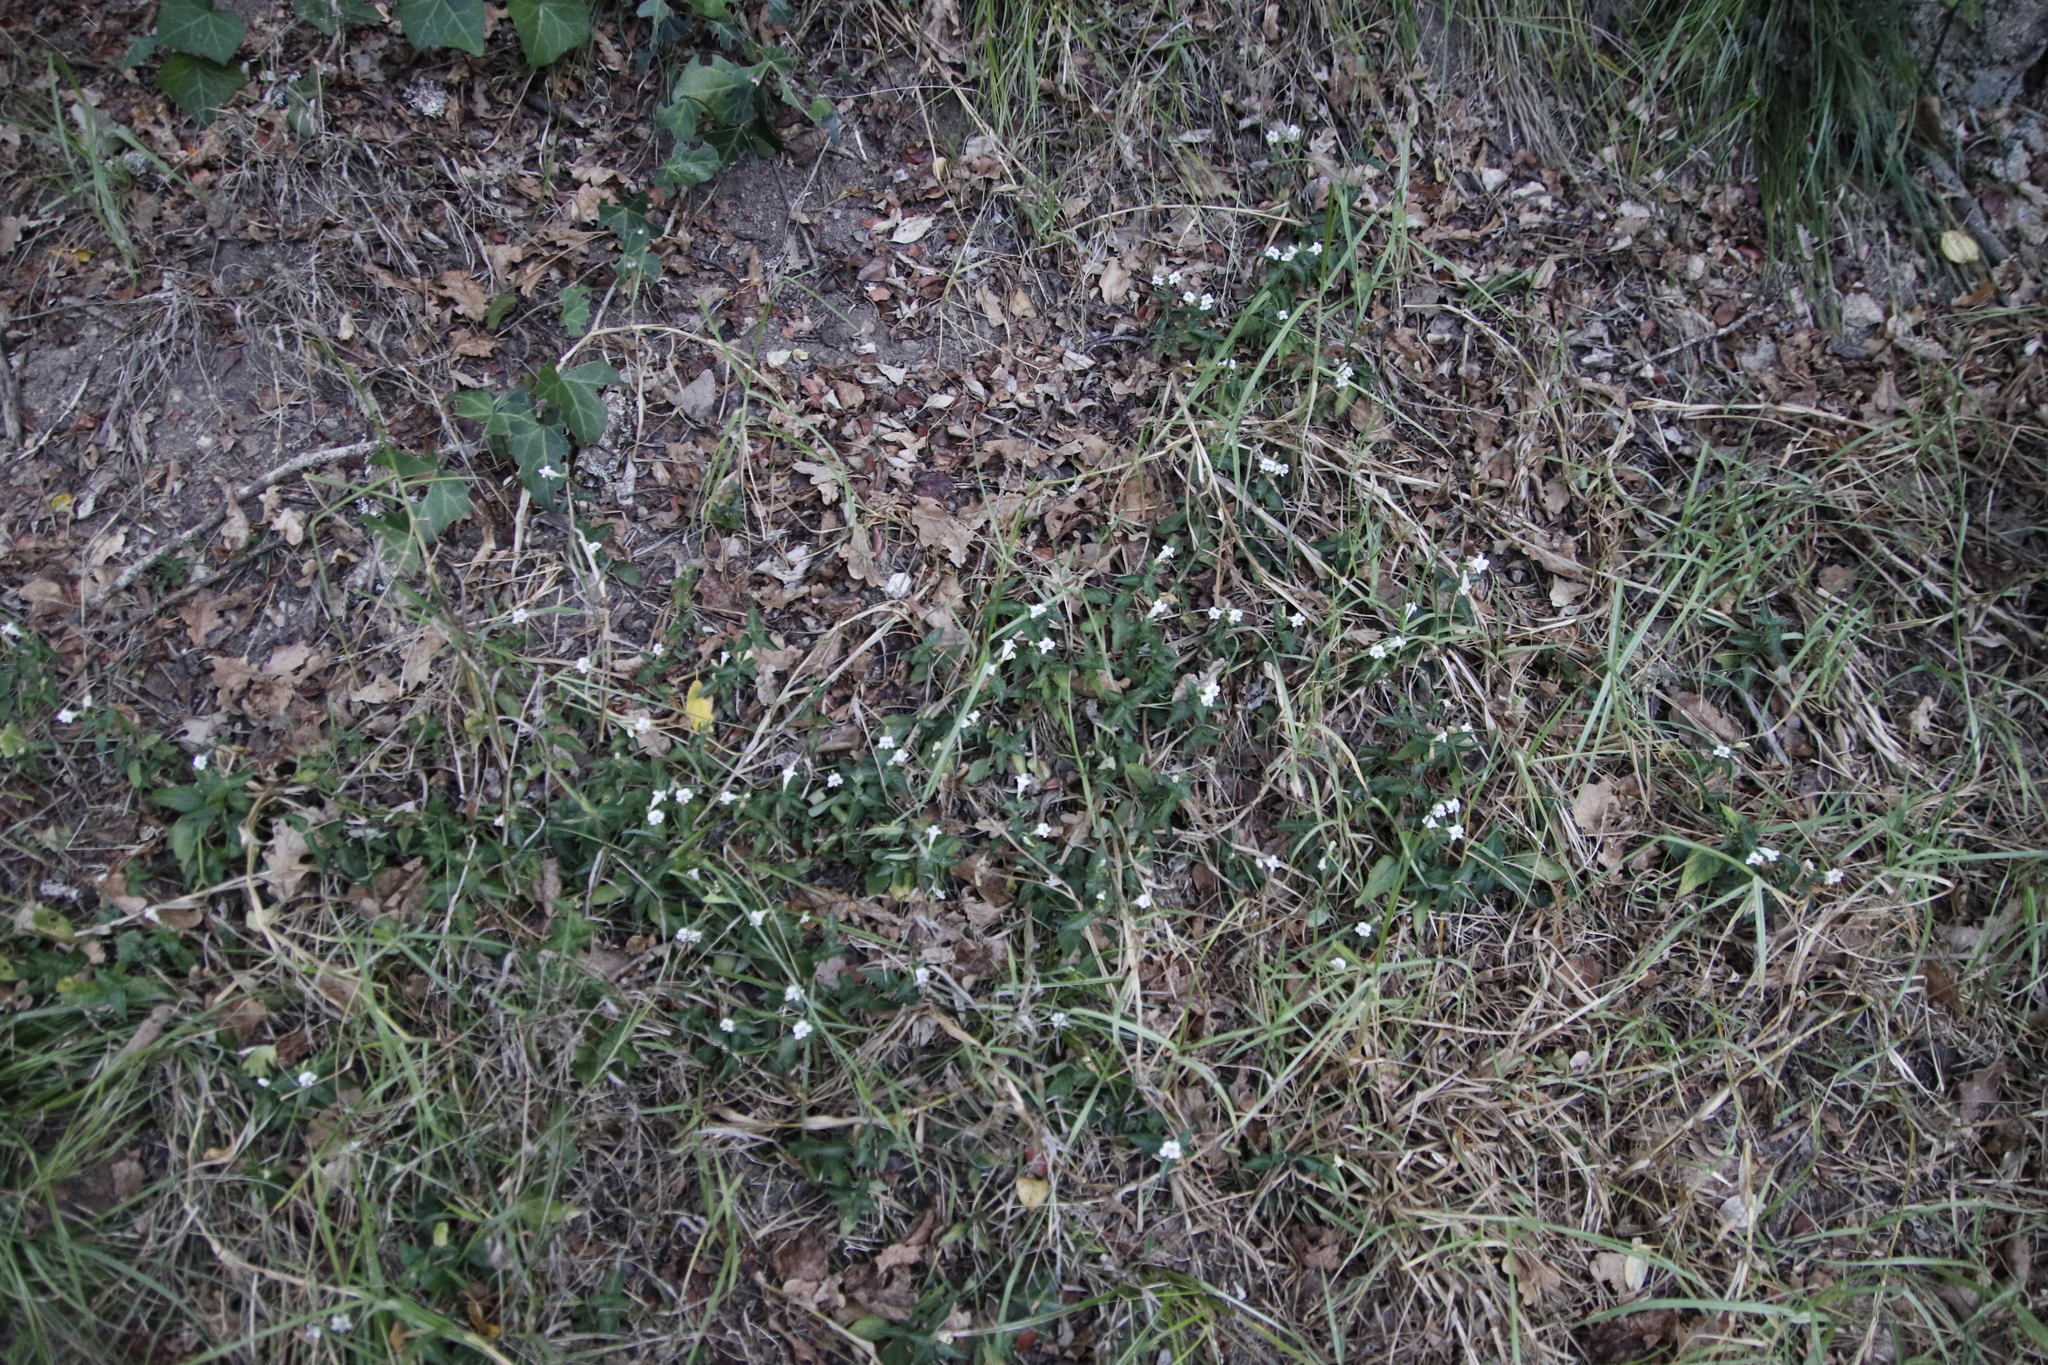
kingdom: Plantae
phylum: Tracheophyta
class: Magnoliopsida
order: Lamiales
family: Acanthaceae
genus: Asystasia
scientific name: Asystasia intrusa
